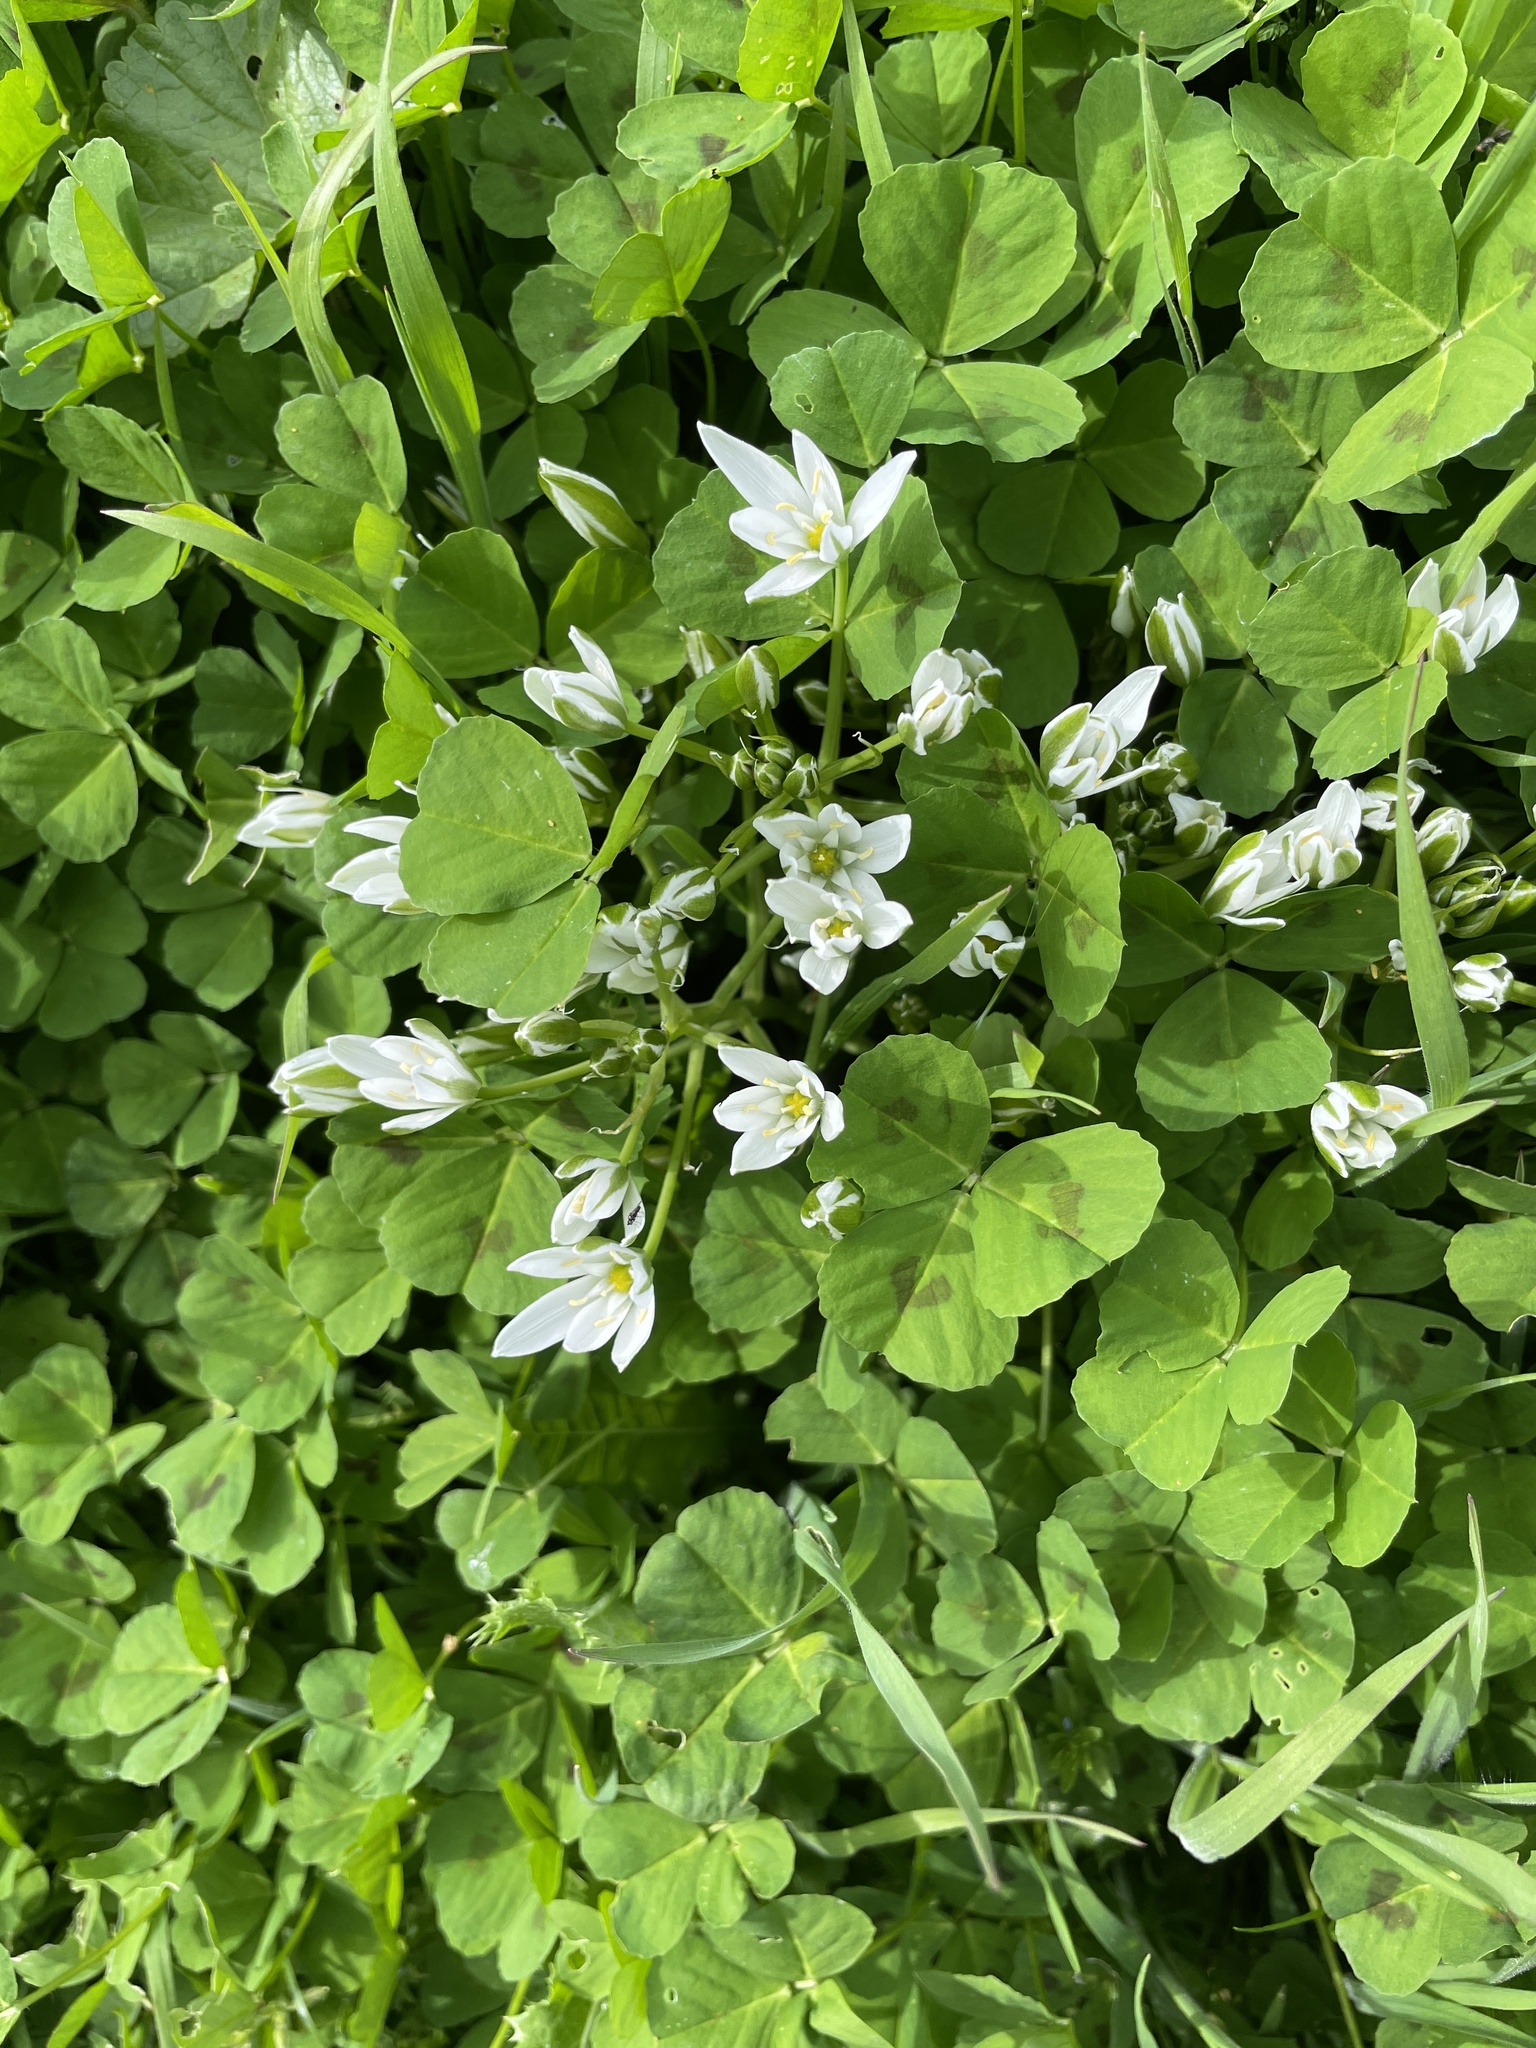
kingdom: Plantae
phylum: Tracheophyta
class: Liliopsida
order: Asparagales
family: Asparagaceae
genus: Ornithogalum
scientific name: Ornithogalum umbellatum
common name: Garden star-of-bethlehem
